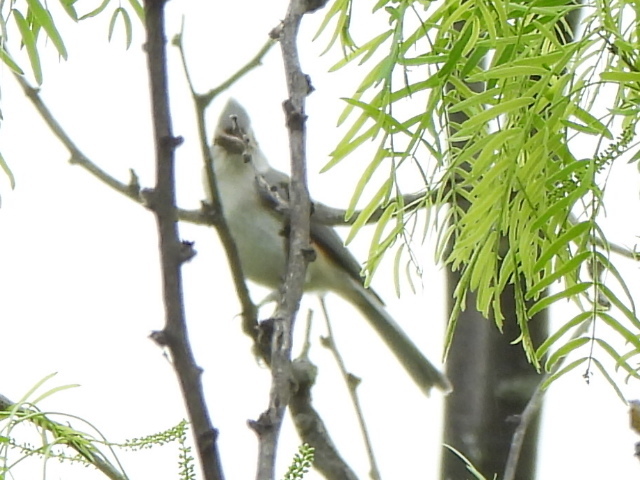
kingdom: Animalia
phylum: Chordata
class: Aves
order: Passeriformes
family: Paridae
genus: Baeolophus
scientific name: Baeolophus bicolor
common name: Tufted titmouse
